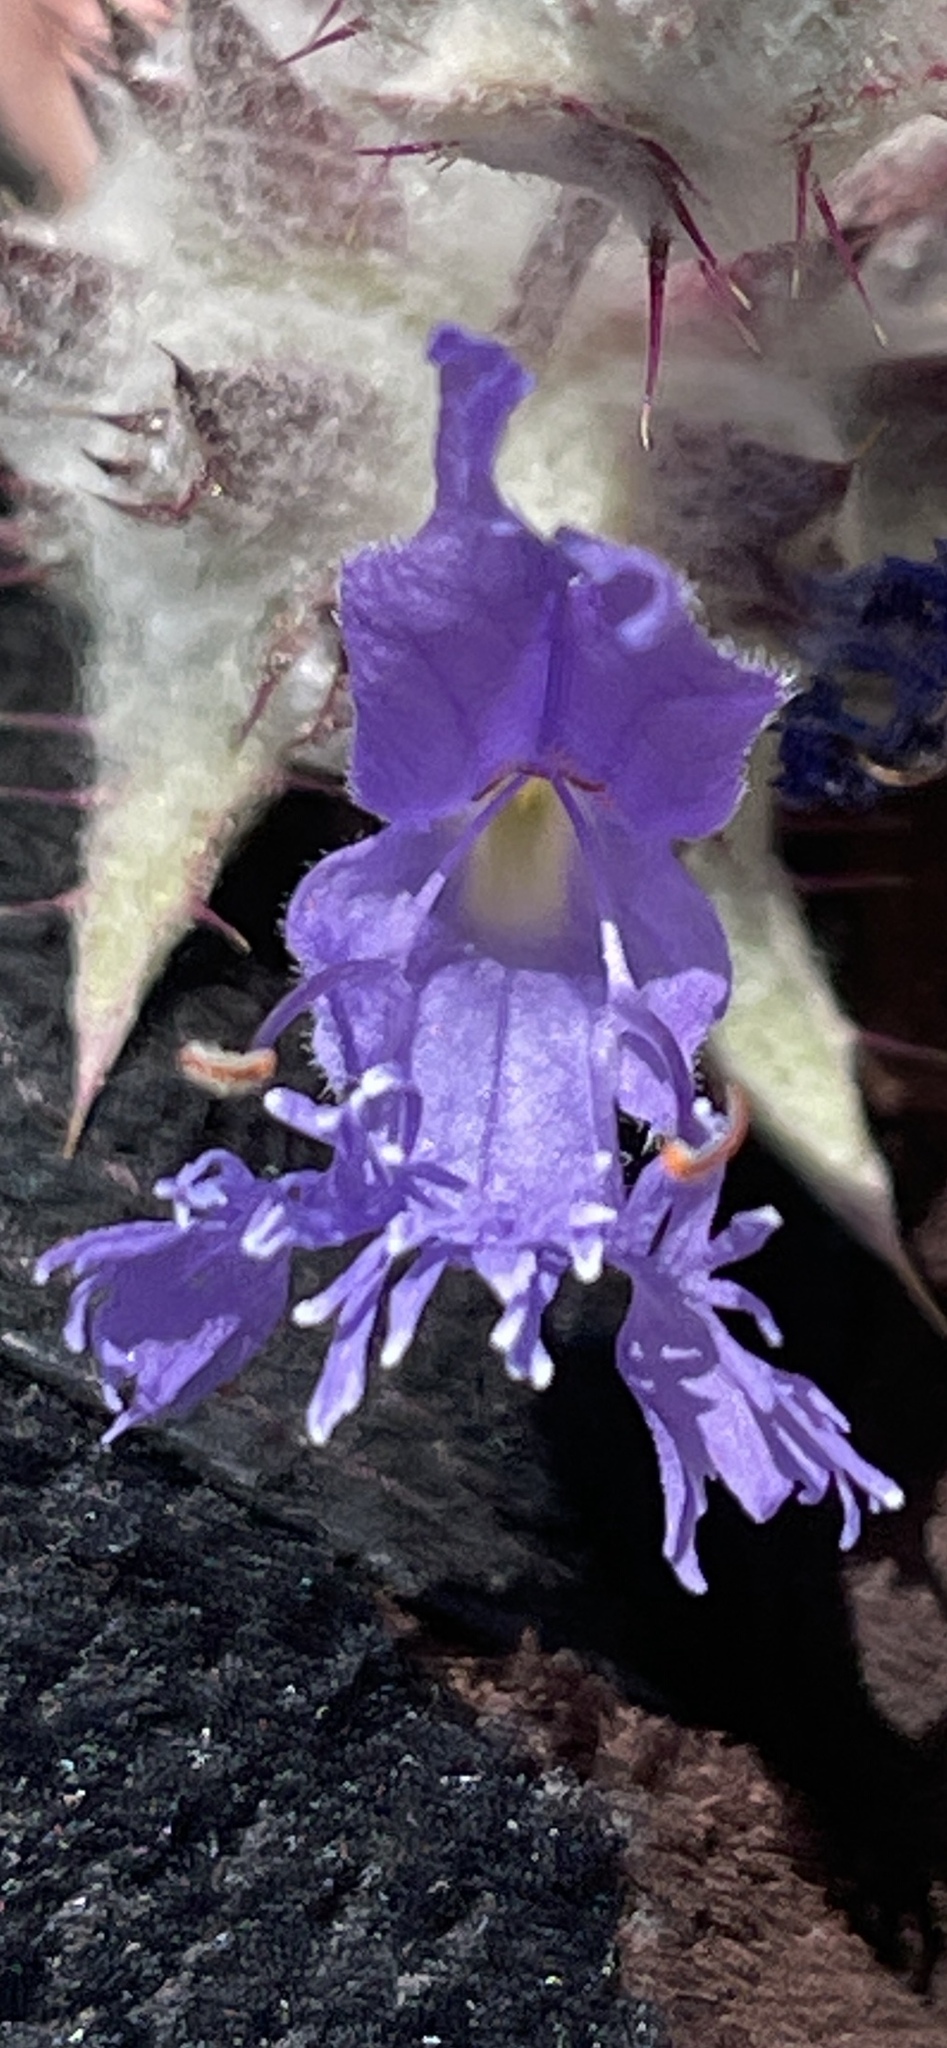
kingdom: Plantae
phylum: Tracheophyta
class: Magnoliopsida
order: Lamiales
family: Lamiaceae
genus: Salvia
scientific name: Salvia carduacea
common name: Thistle sage
